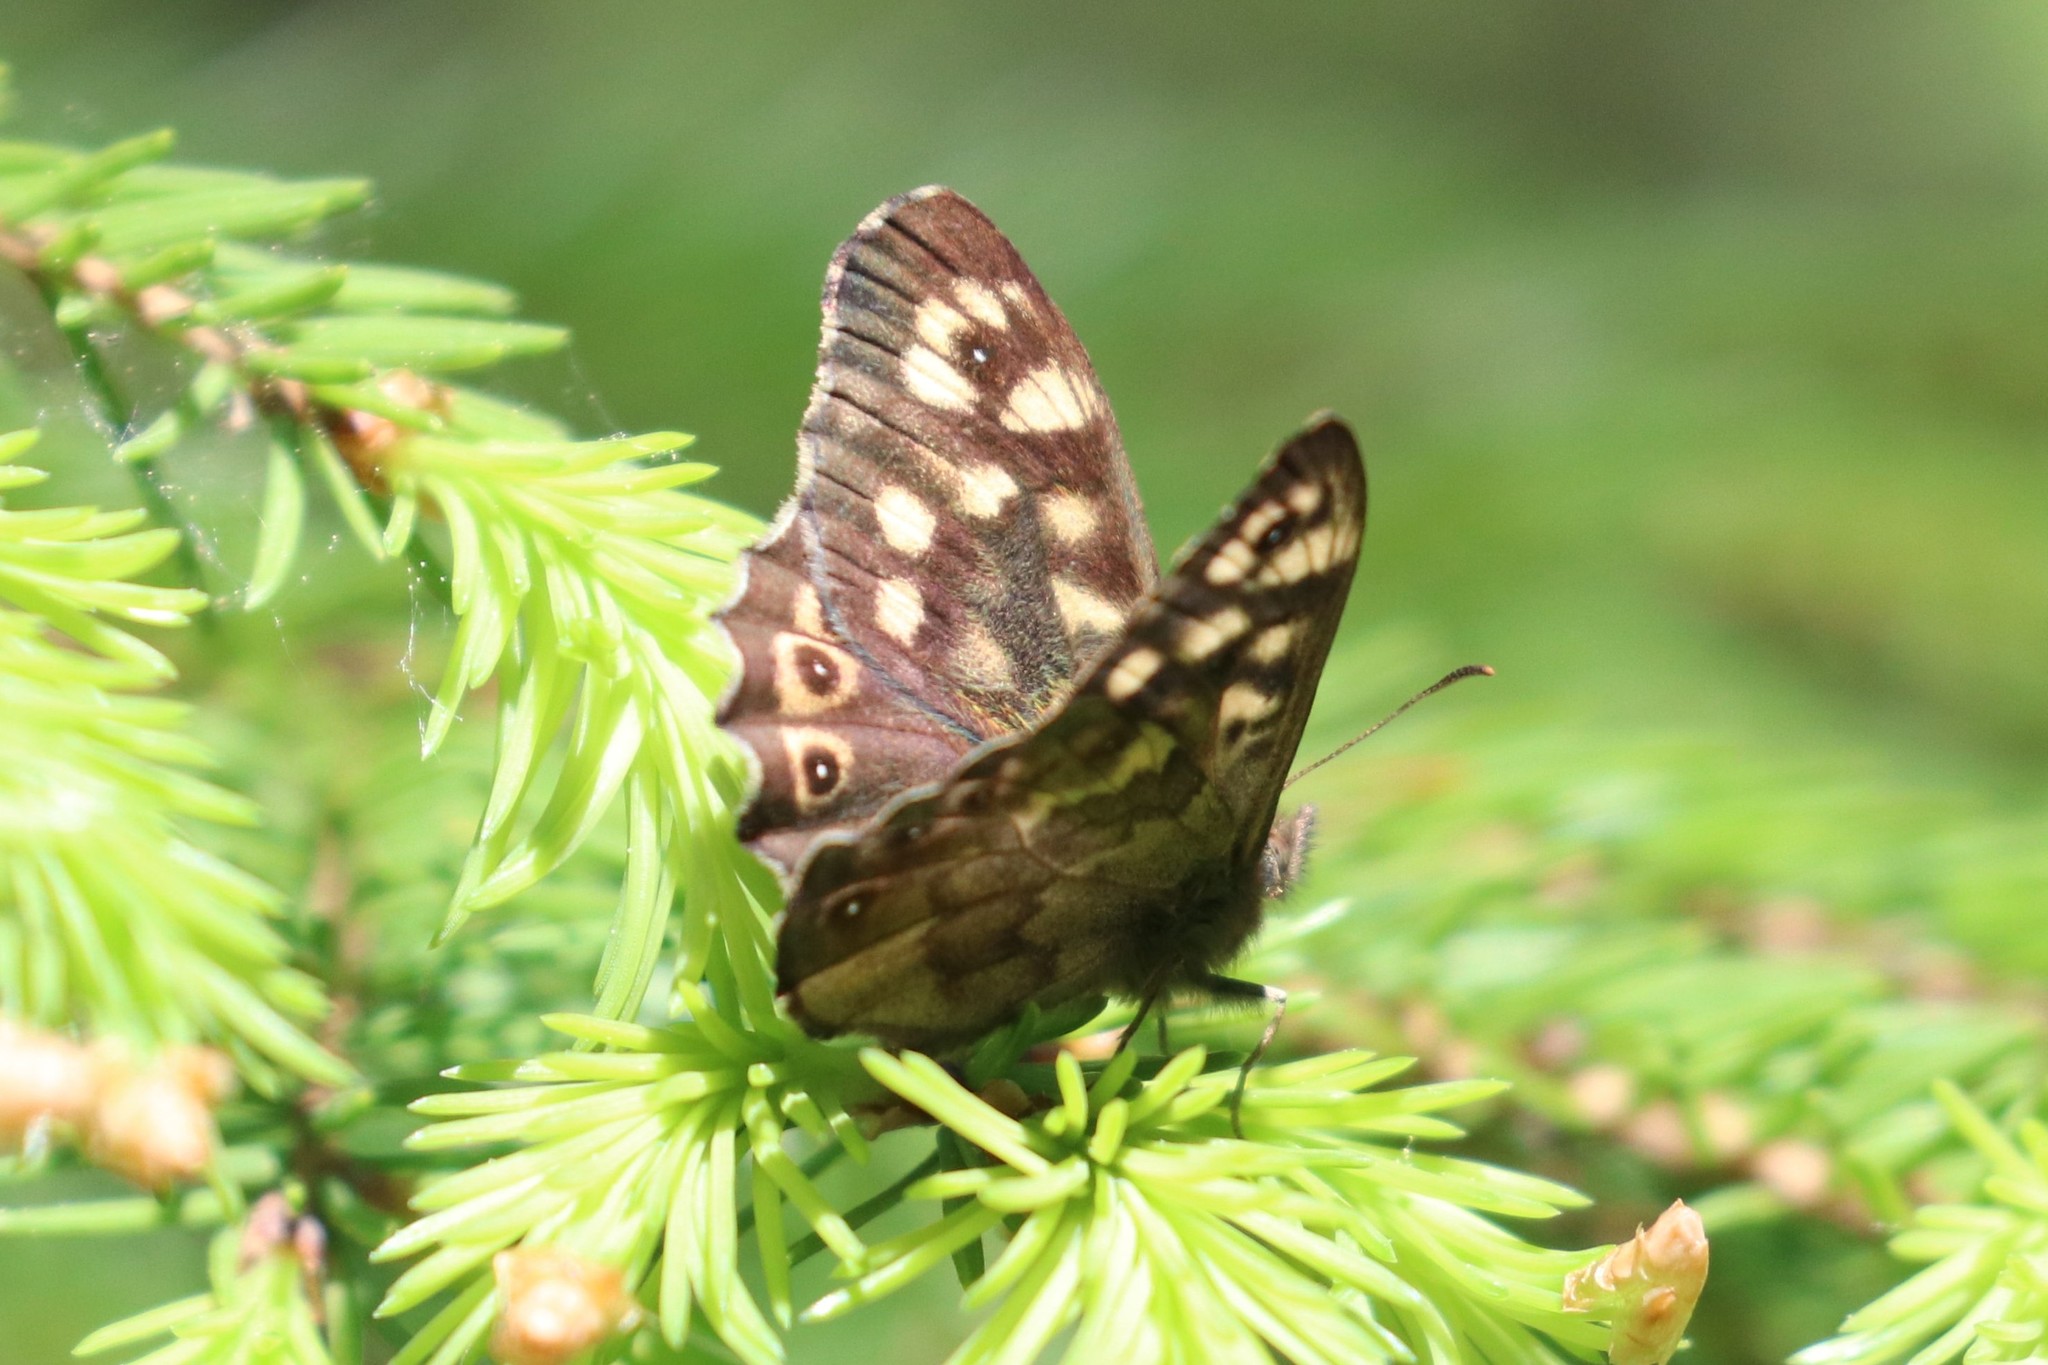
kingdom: Animalia
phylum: Arthropoda
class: Insecta
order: Lepidoptera
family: Nymphalidae
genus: Pararge
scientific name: Pararge aegeria
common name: Speckled wood
